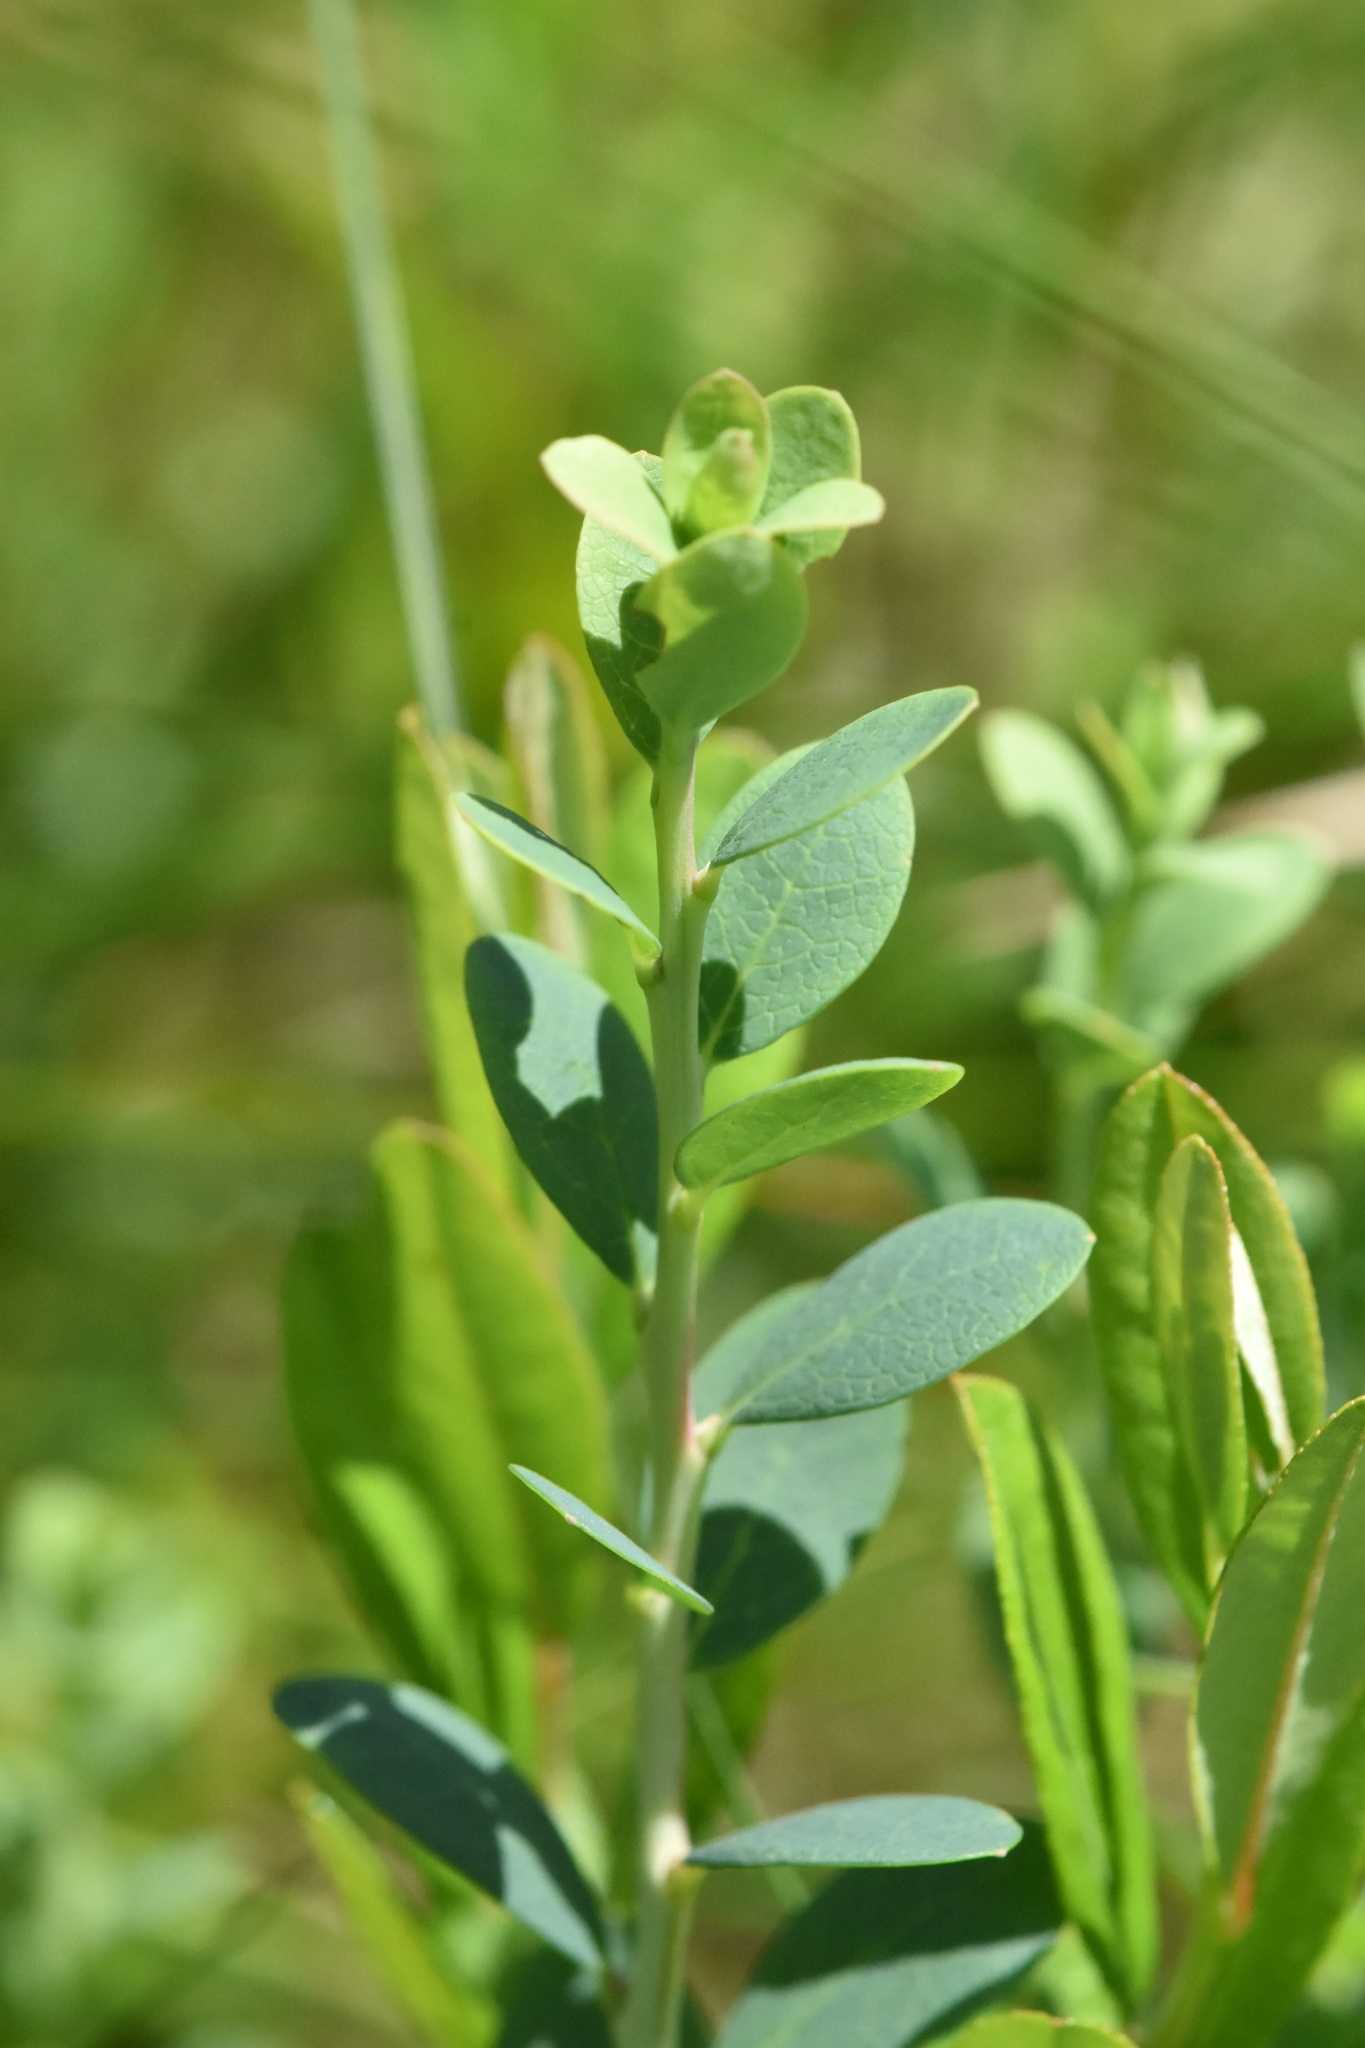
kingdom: Plantae
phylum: Tracheophyta
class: Magnoliopsida
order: Ericales
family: Ericaceae
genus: Vaccinium
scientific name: Vaccinium uliginosum
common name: Bog bilberry
